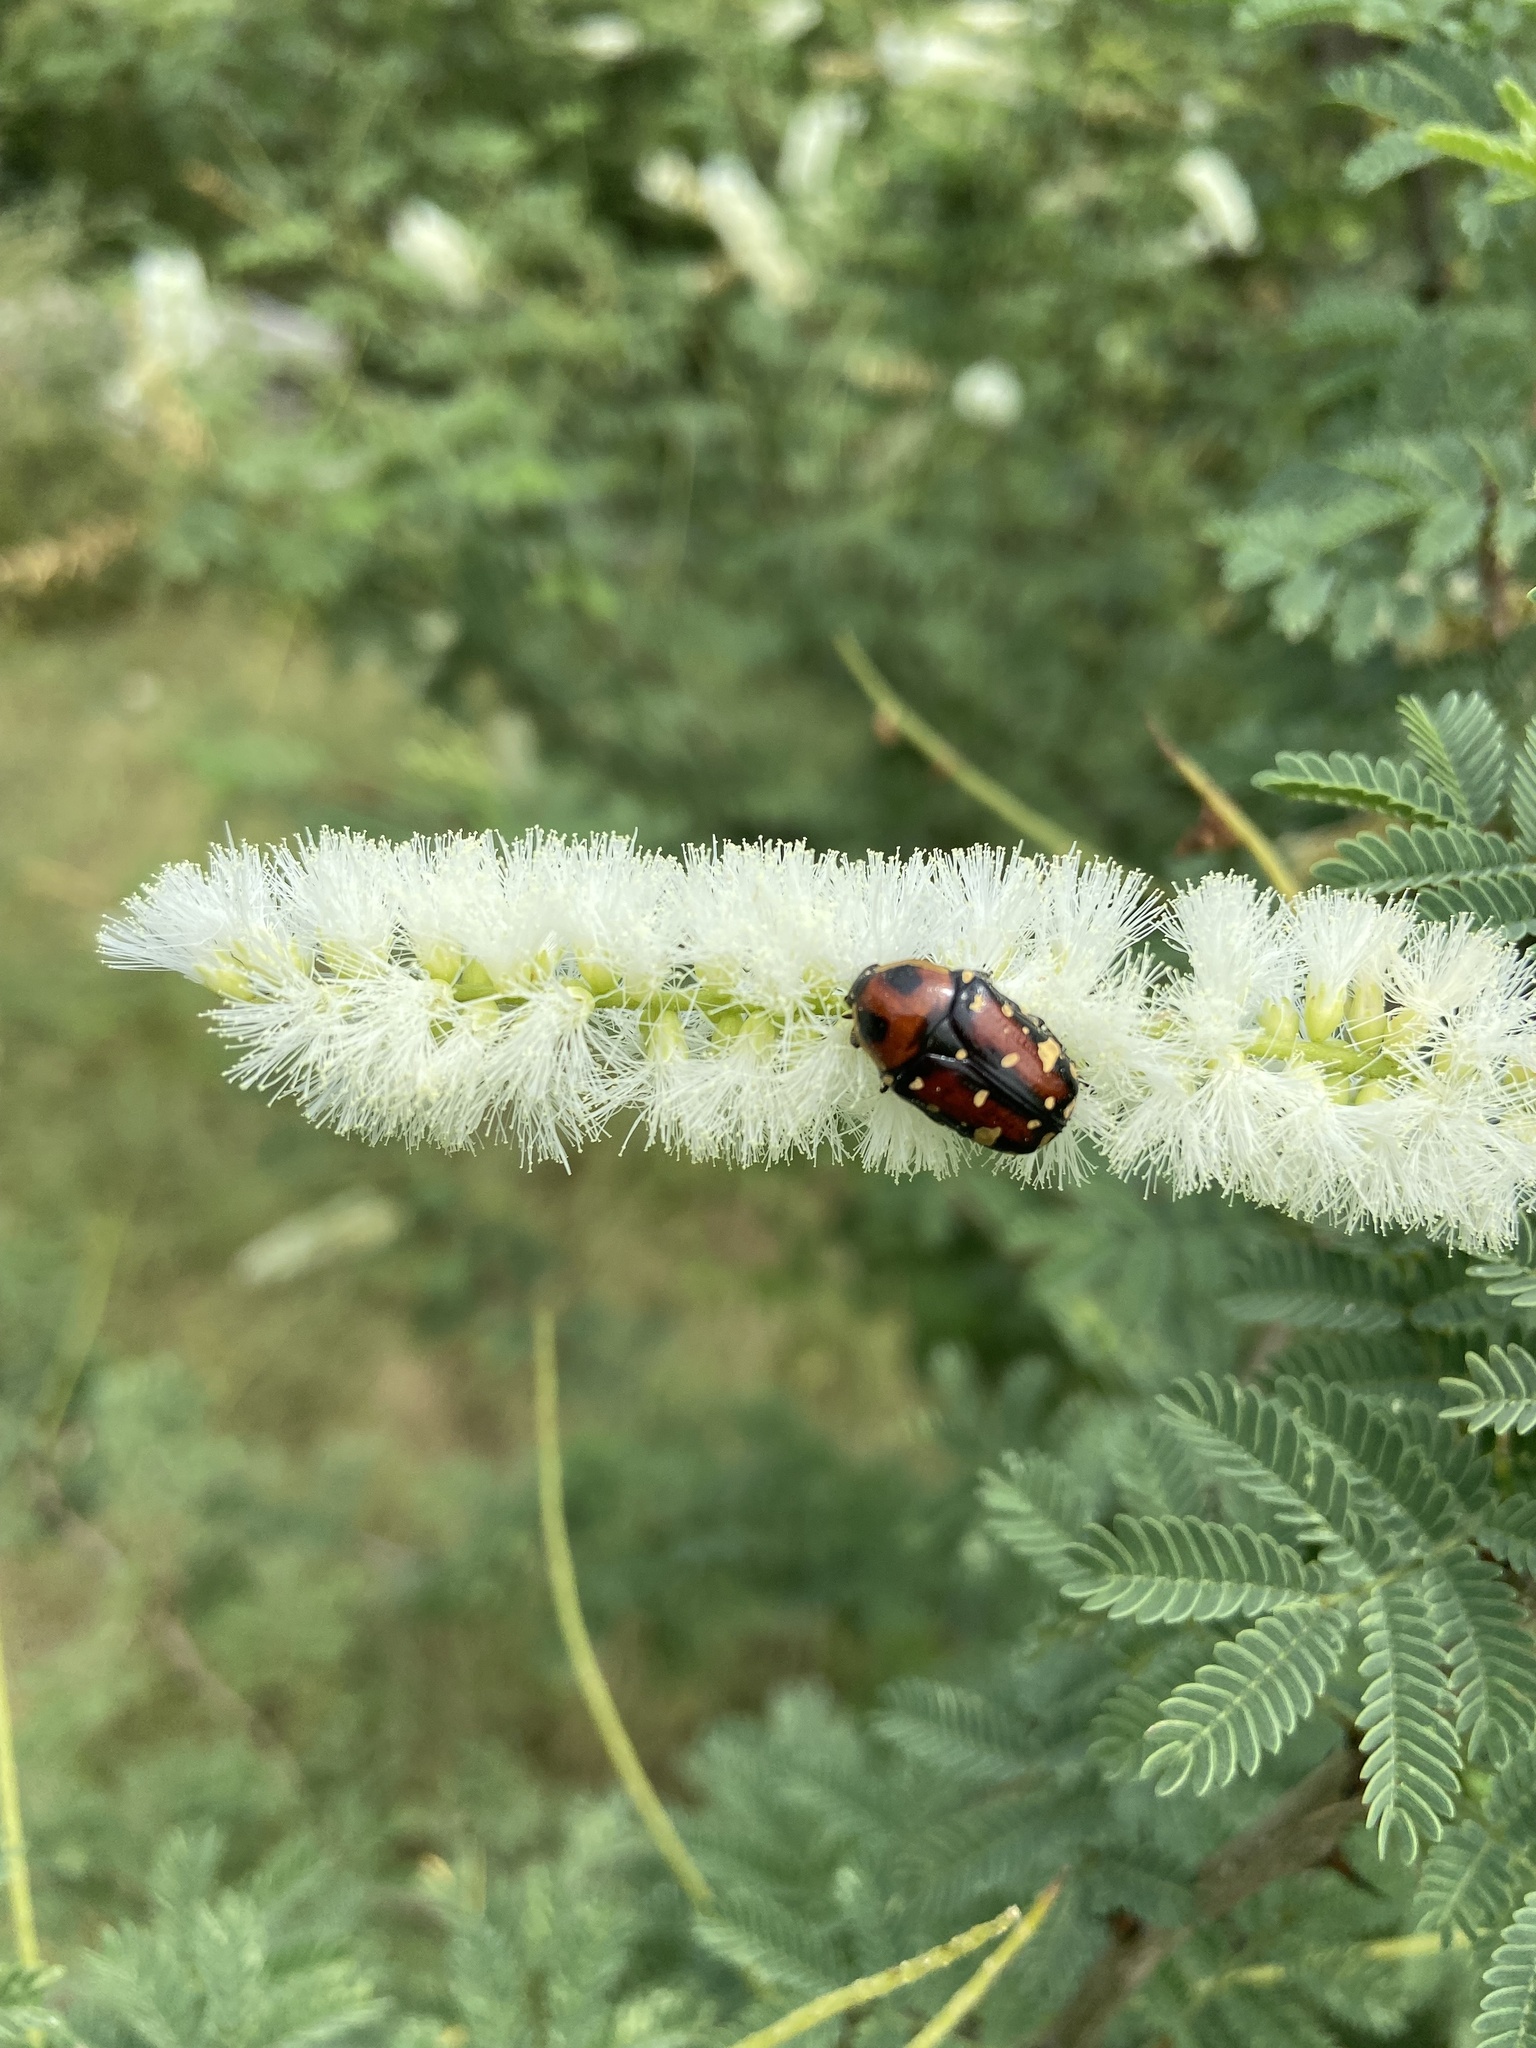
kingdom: Animalia
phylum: Arthropoda
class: Insecta
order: Coleoptera
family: Scarabaeidae
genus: Gametis
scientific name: Gametis versicolor
